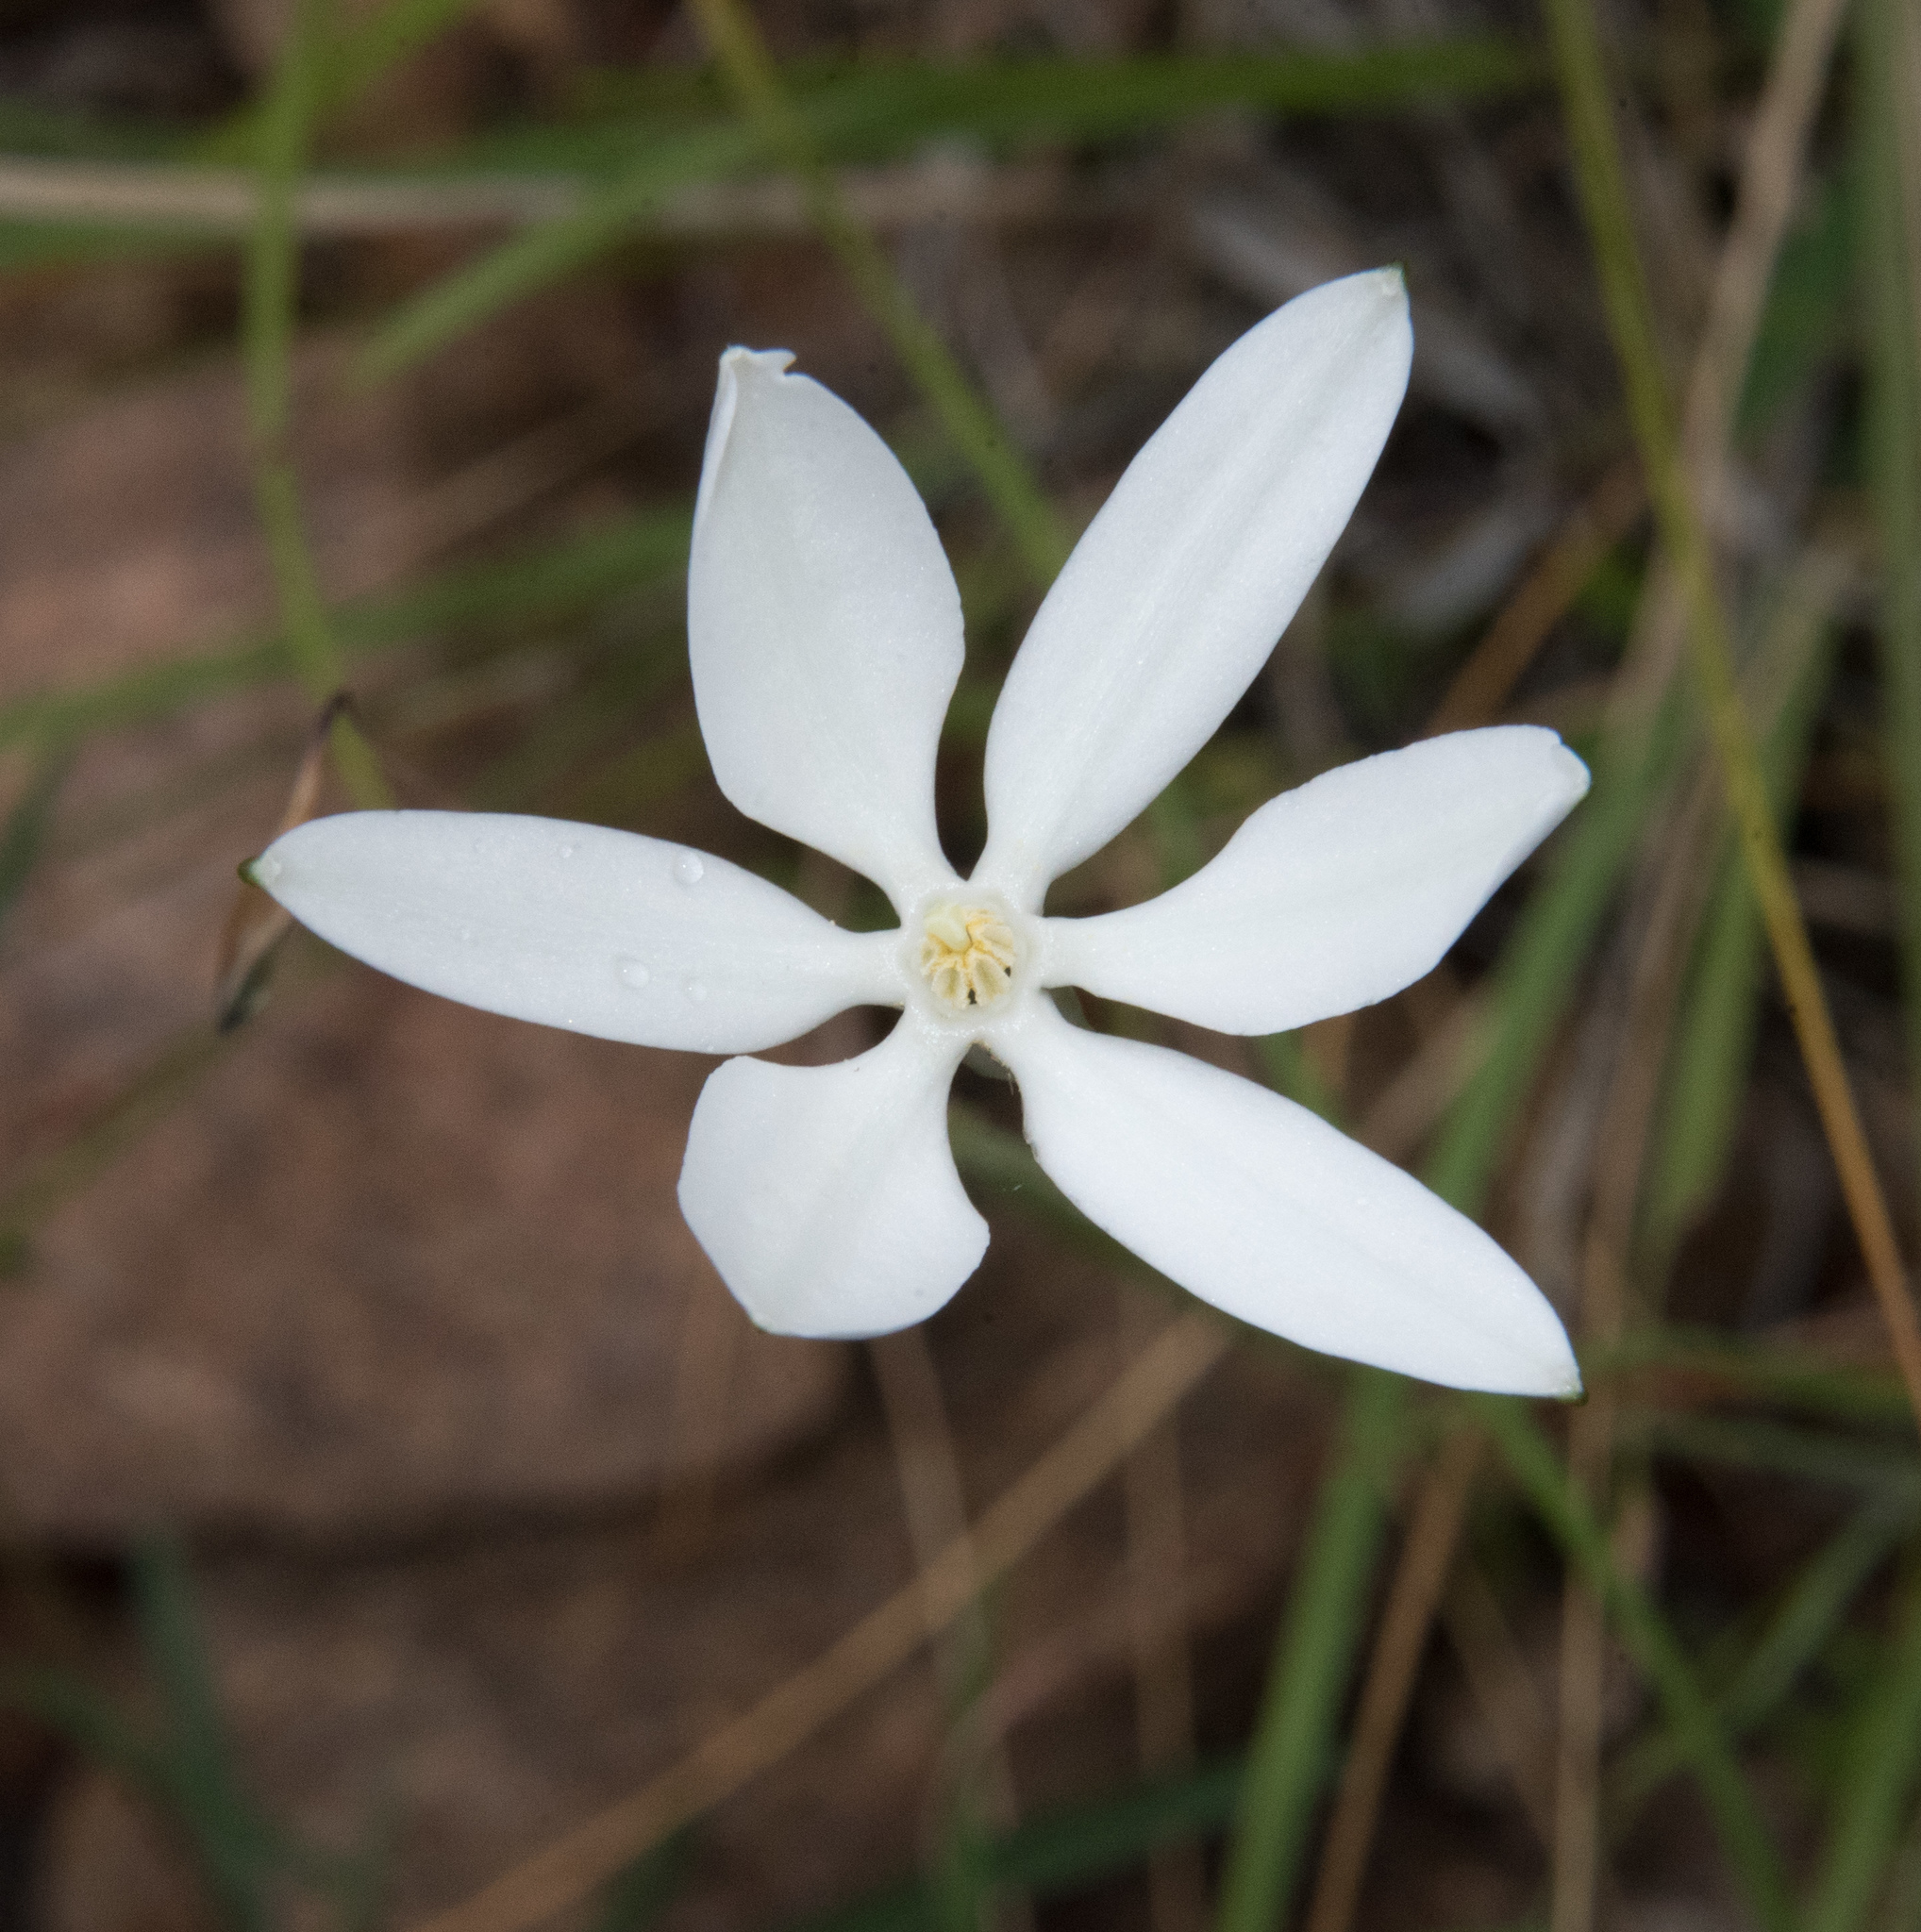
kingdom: Plantae
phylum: Tracheophyta
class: Liliopsida
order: Asparagales
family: Asparagaceae
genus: Milla
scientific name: Milla biflora
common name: Mexican-star
